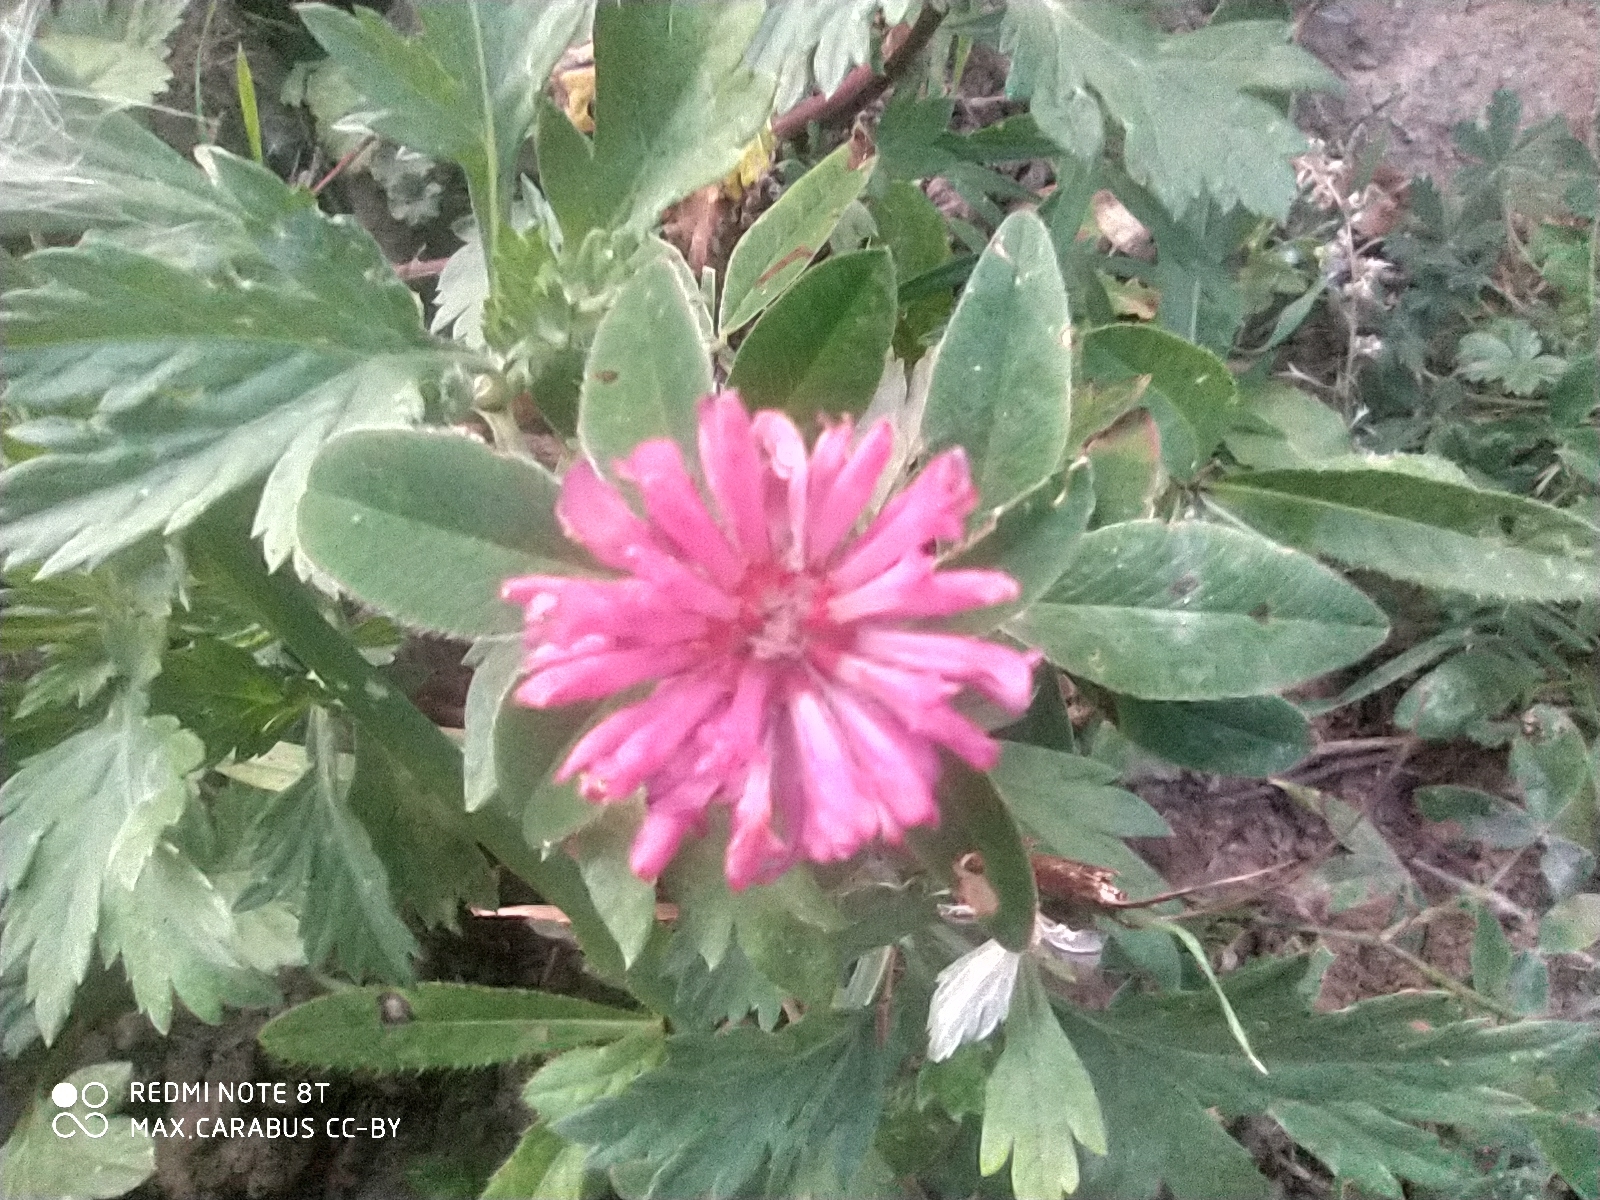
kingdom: Plantae
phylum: Tracheophyta
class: Magnoliopsida
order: Fabales
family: Fabaceae
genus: Trifolium
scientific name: Trifolium medium
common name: Zigzag clover
